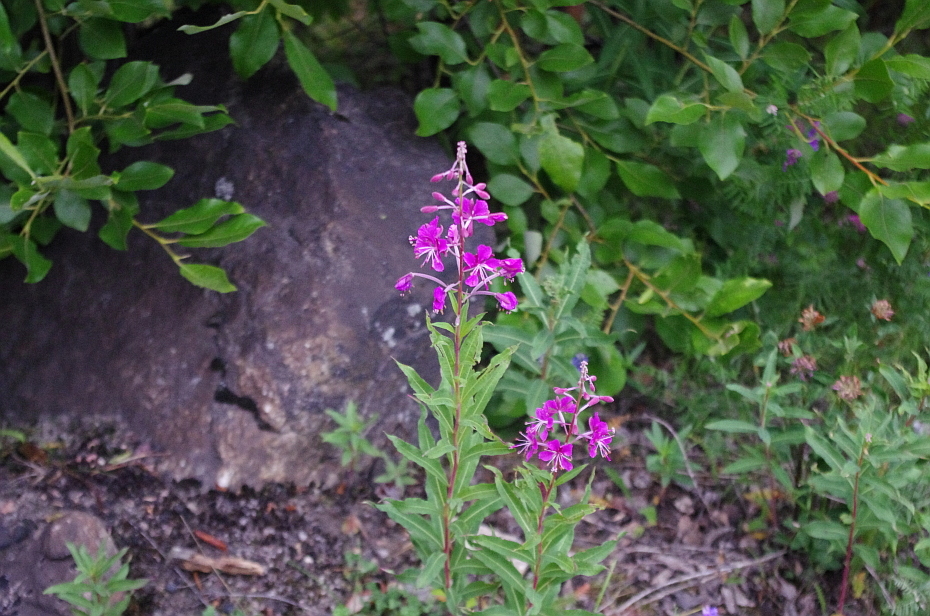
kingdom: Plantae
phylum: Tracheophyta
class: Magnoliopsida
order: Myrtales
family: Onagraceae
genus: Chamaenerion
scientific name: Chamaenerion angustifolium
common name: Fireweed
